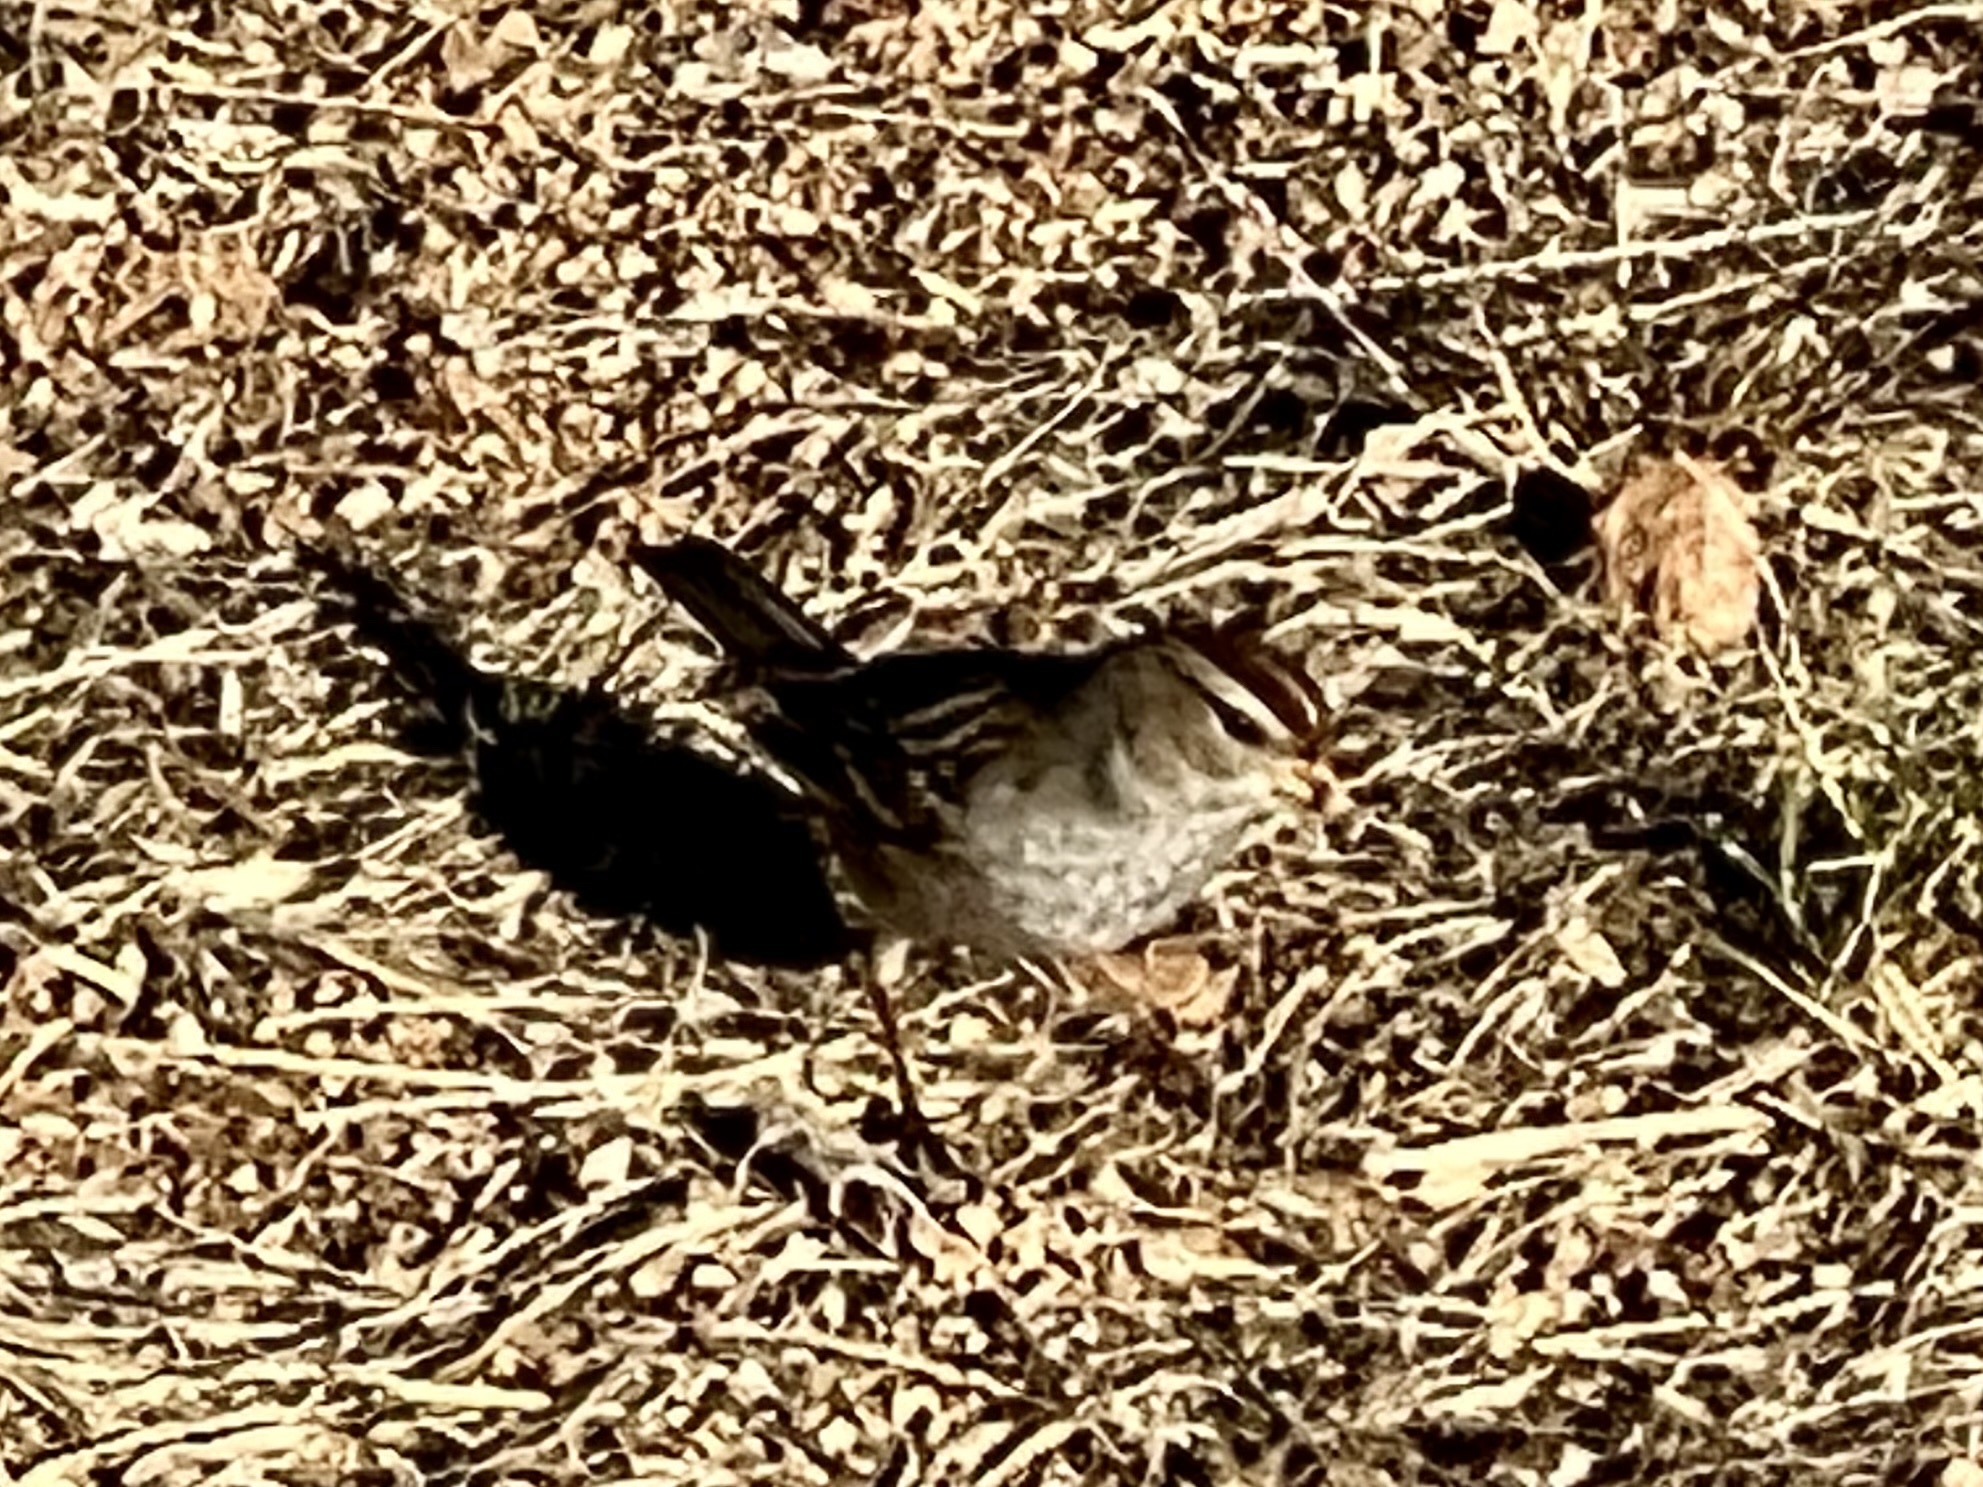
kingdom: Animalia
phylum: Chordata
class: Aves
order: Passeriformes
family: Passerellidae
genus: Zonotrichia
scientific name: Zonotrichia leucophrys
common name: White-crowned sparrow
